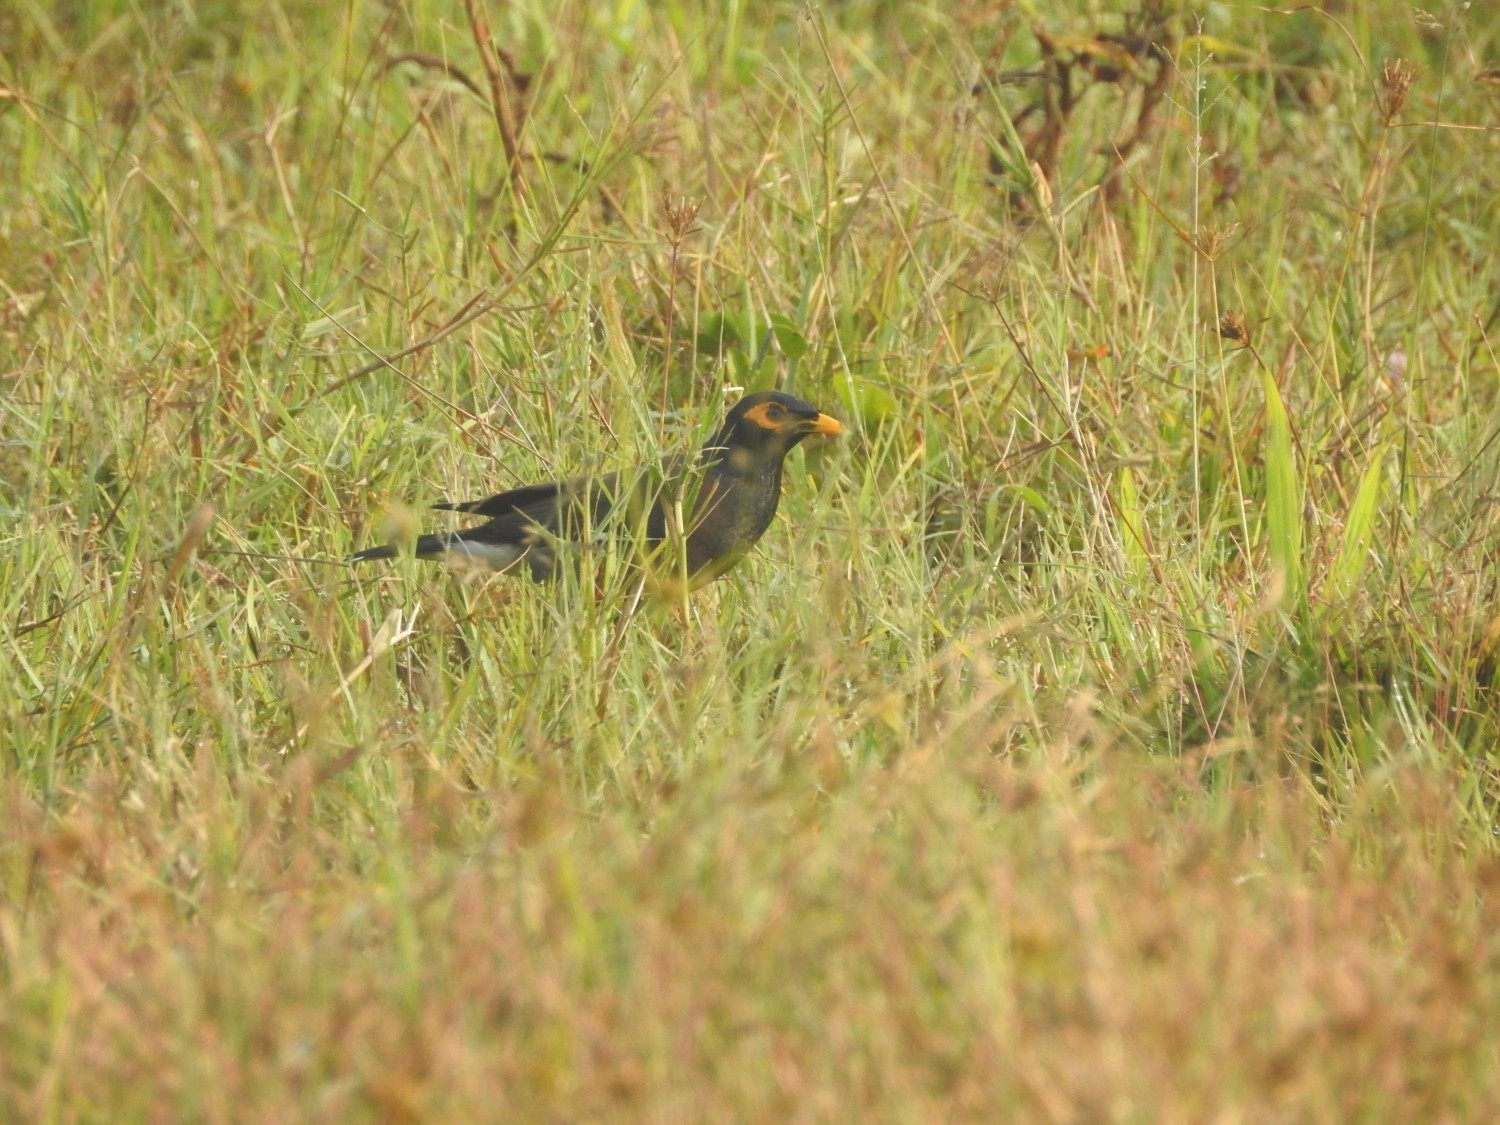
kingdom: Animalia
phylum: Chordata
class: Aves
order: Passeriformes
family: Sturnidae
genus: Acridotheres
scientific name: Acridotheres tristis
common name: Common myna
